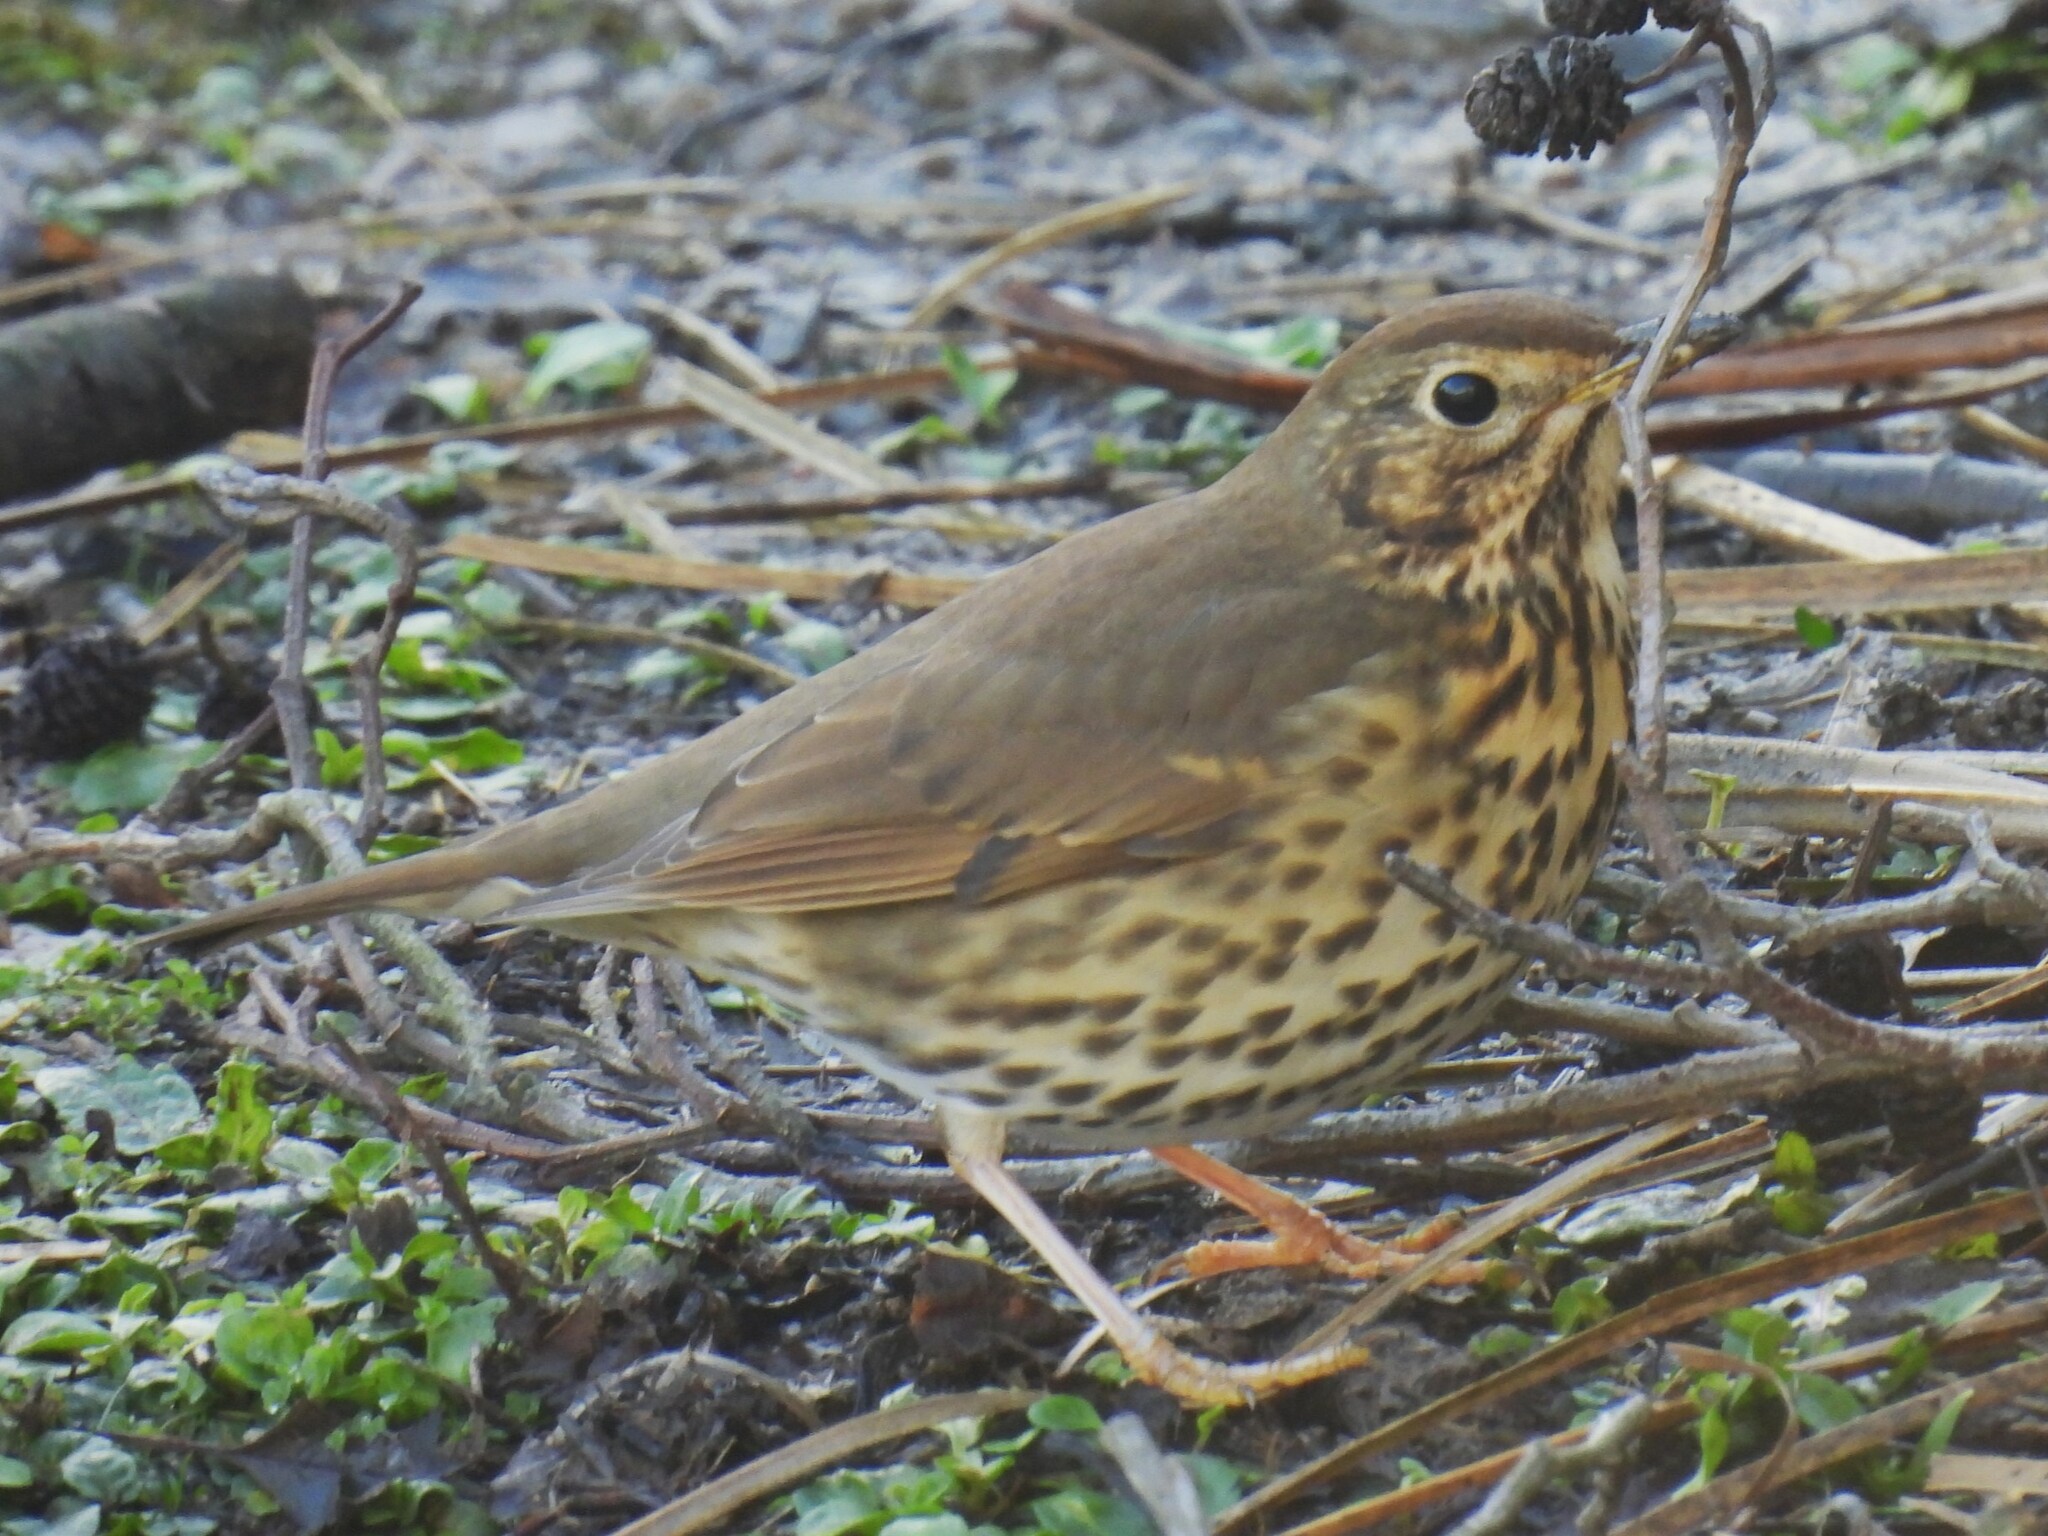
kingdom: Animalia
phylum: Chordata
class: Aves
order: Passeriformes
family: Turdidae
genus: Turdus
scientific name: Turdus philomelos
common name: Song thrush
